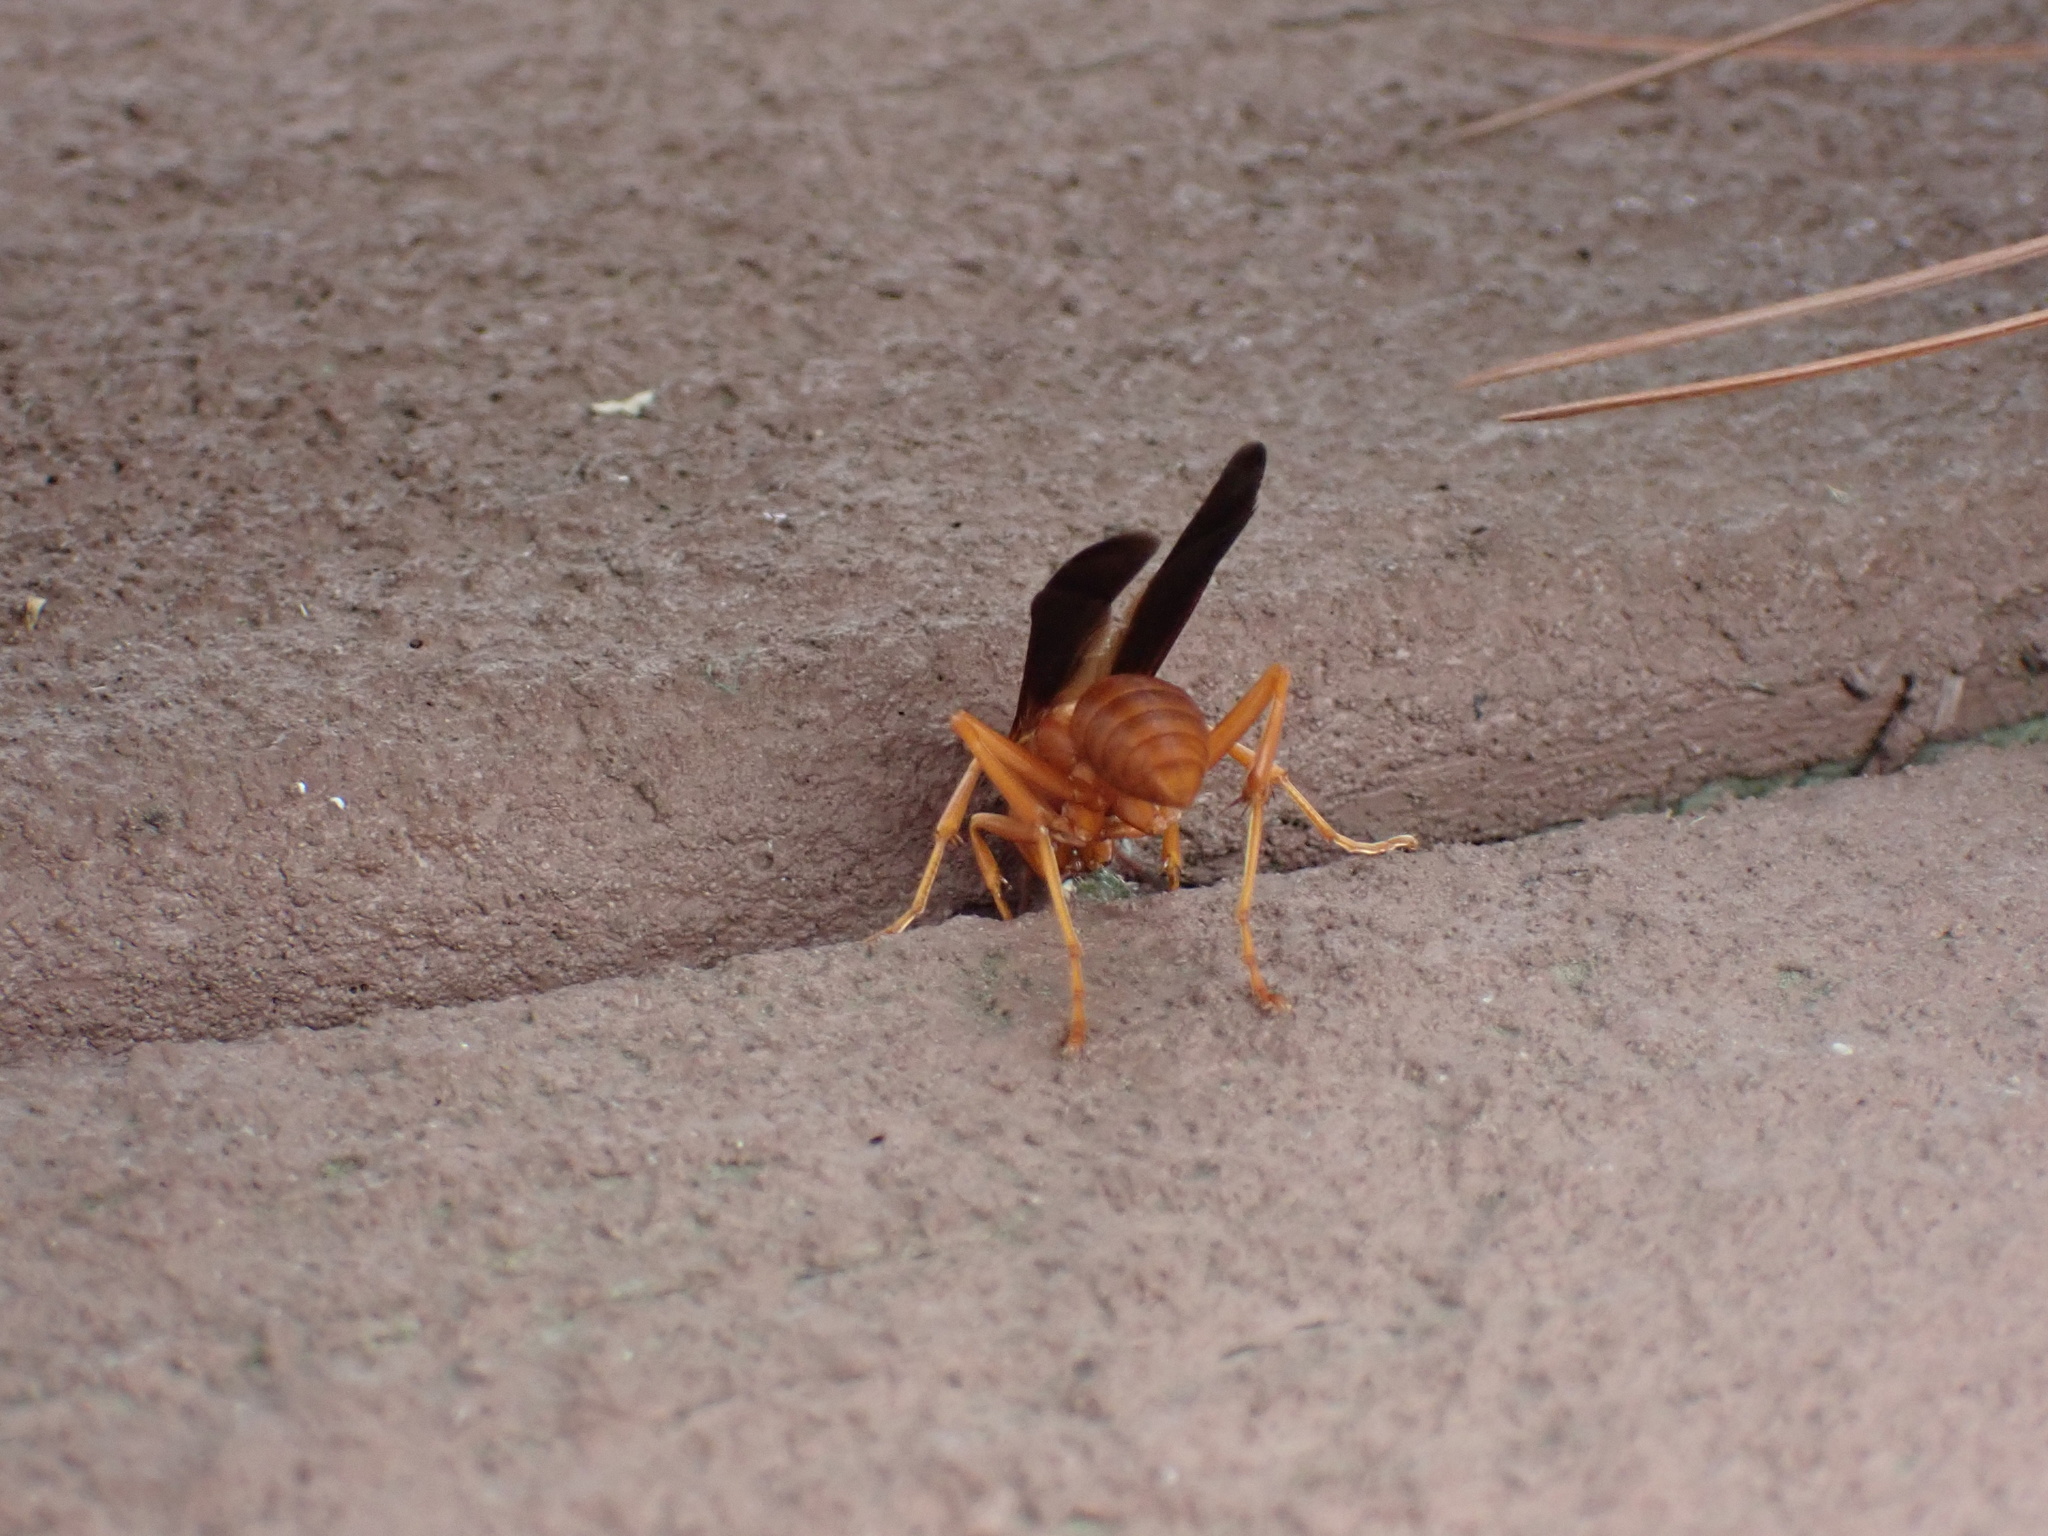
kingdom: Animalia
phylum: Arthropoda
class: Insecta
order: Hymenoptera
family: Eumenidae
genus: Polistes
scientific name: Polistes carolina
